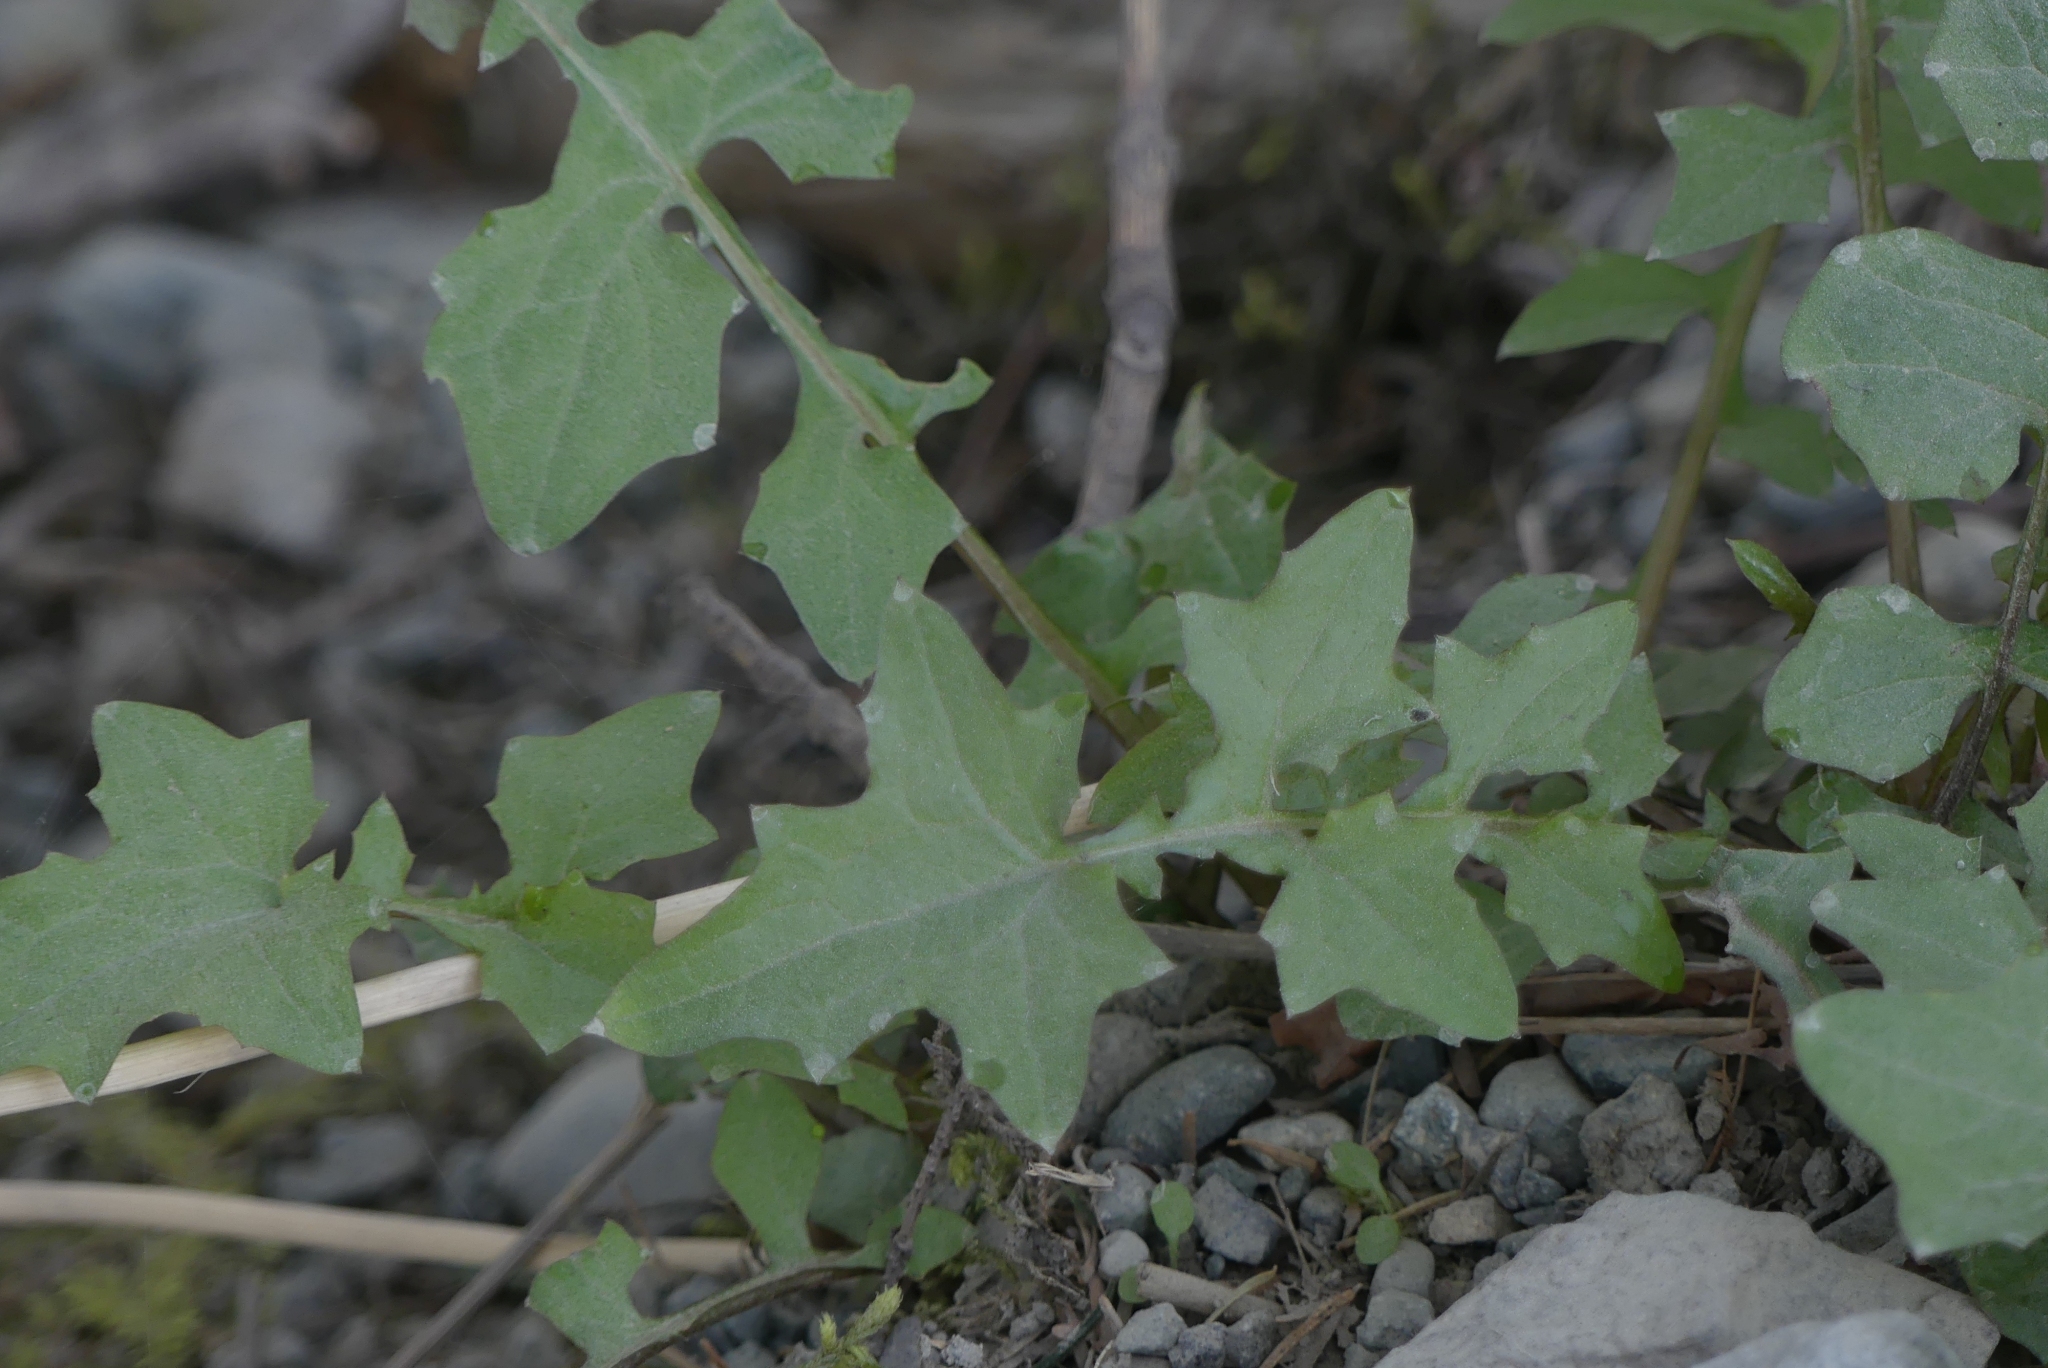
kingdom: Plantae
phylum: Tracheophyta
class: Magnoliopsida
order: Asterales
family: Asteraceae
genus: Mycelis
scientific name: Mycelis muralis
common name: Wall lettuce
